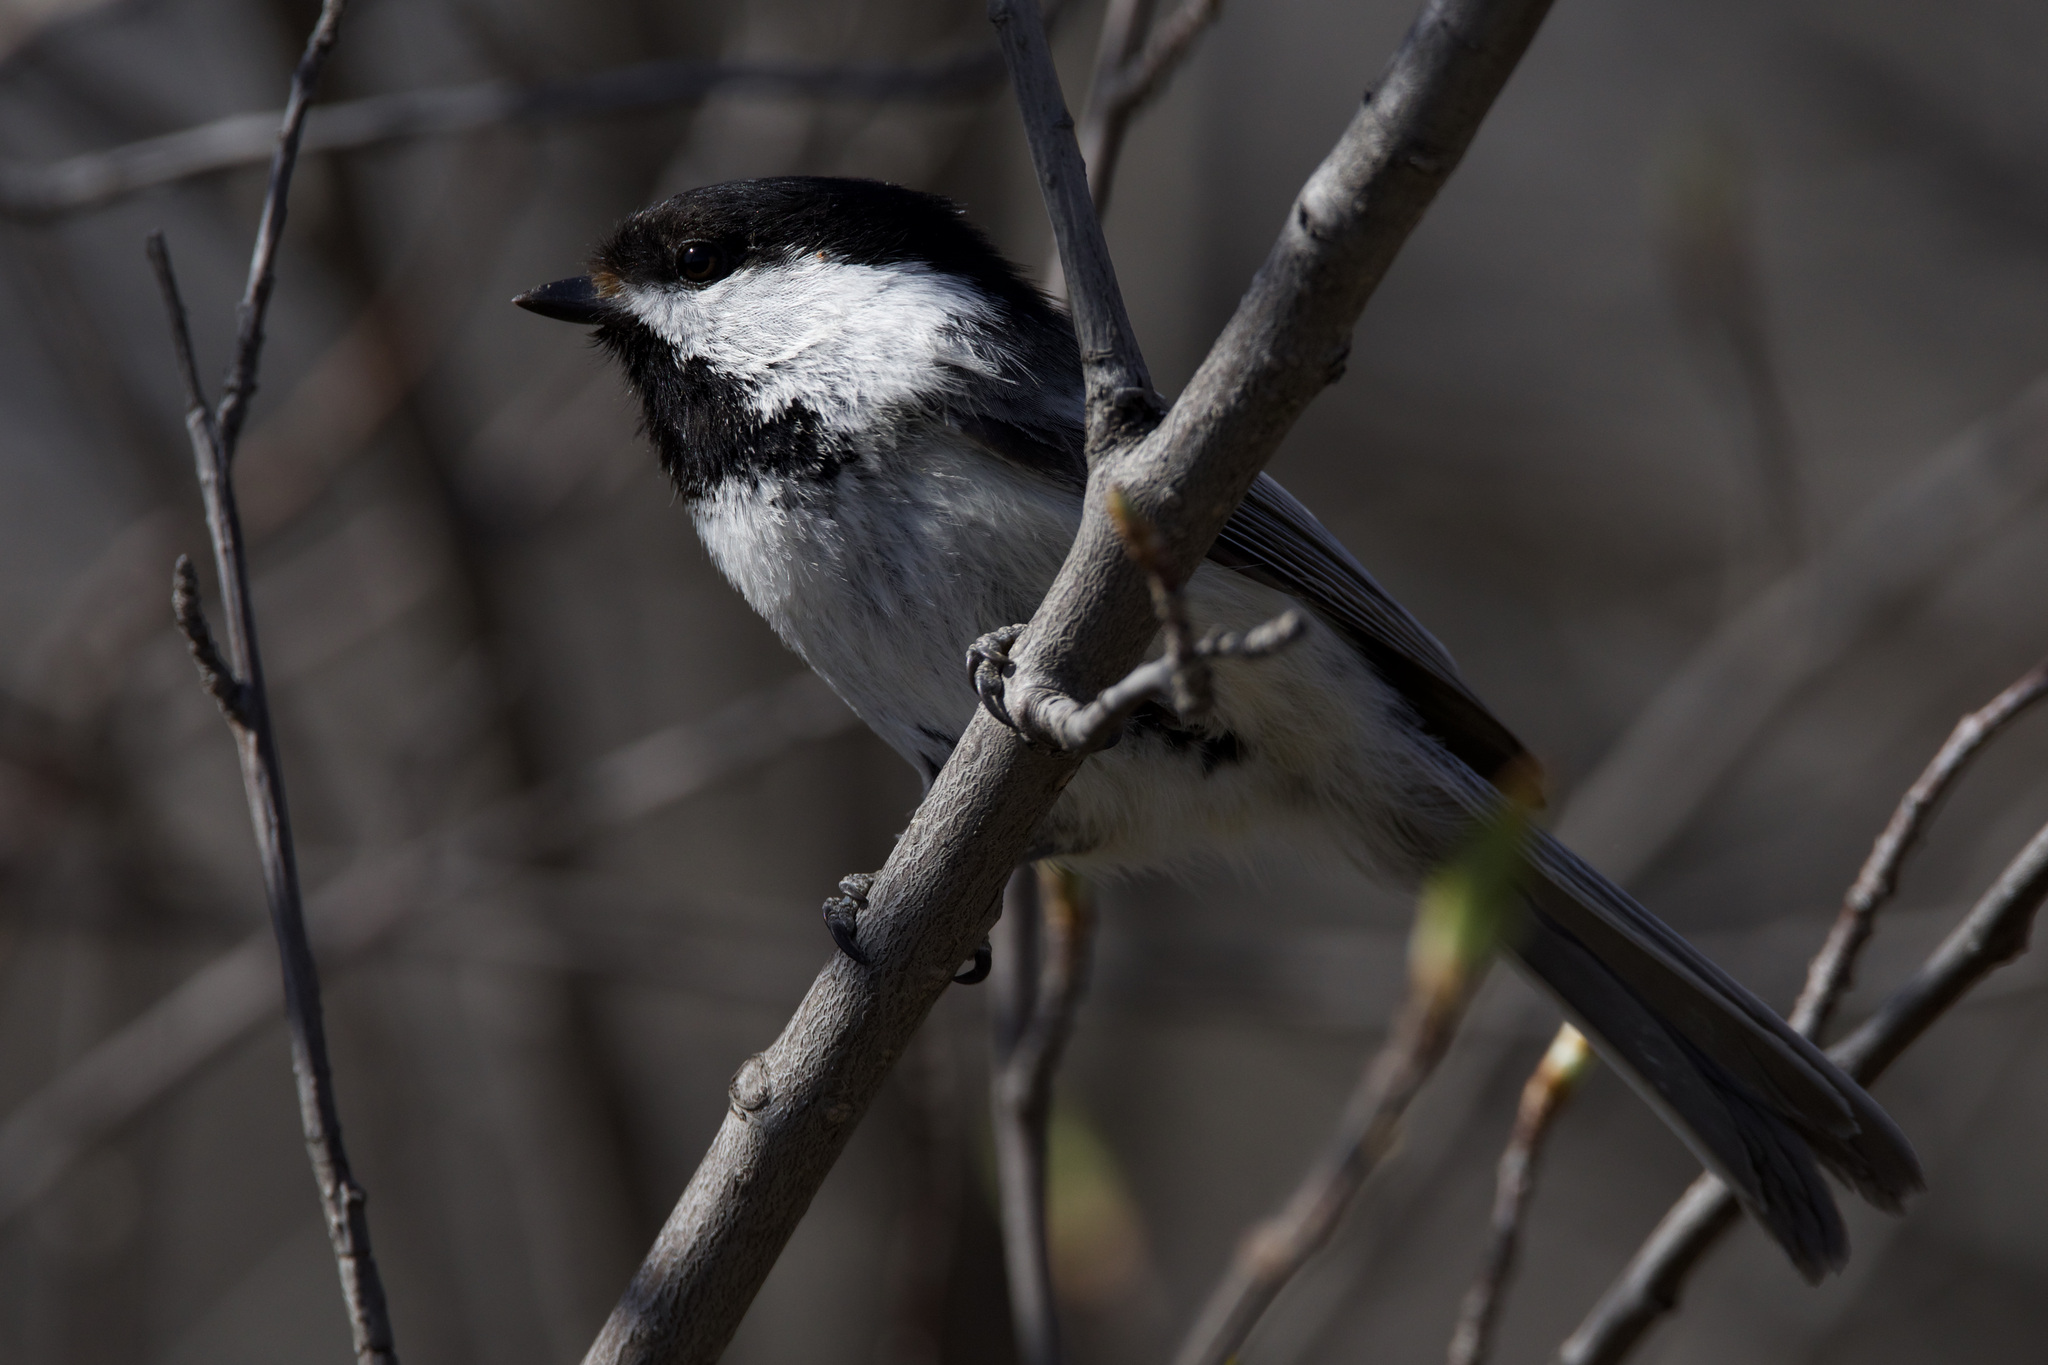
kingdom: Animalia
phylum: Chordata
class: Aves
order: Passeriformes
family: Paridae
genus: Poecile
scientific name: Poecile atricapillus
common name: Black-capped chickadee
